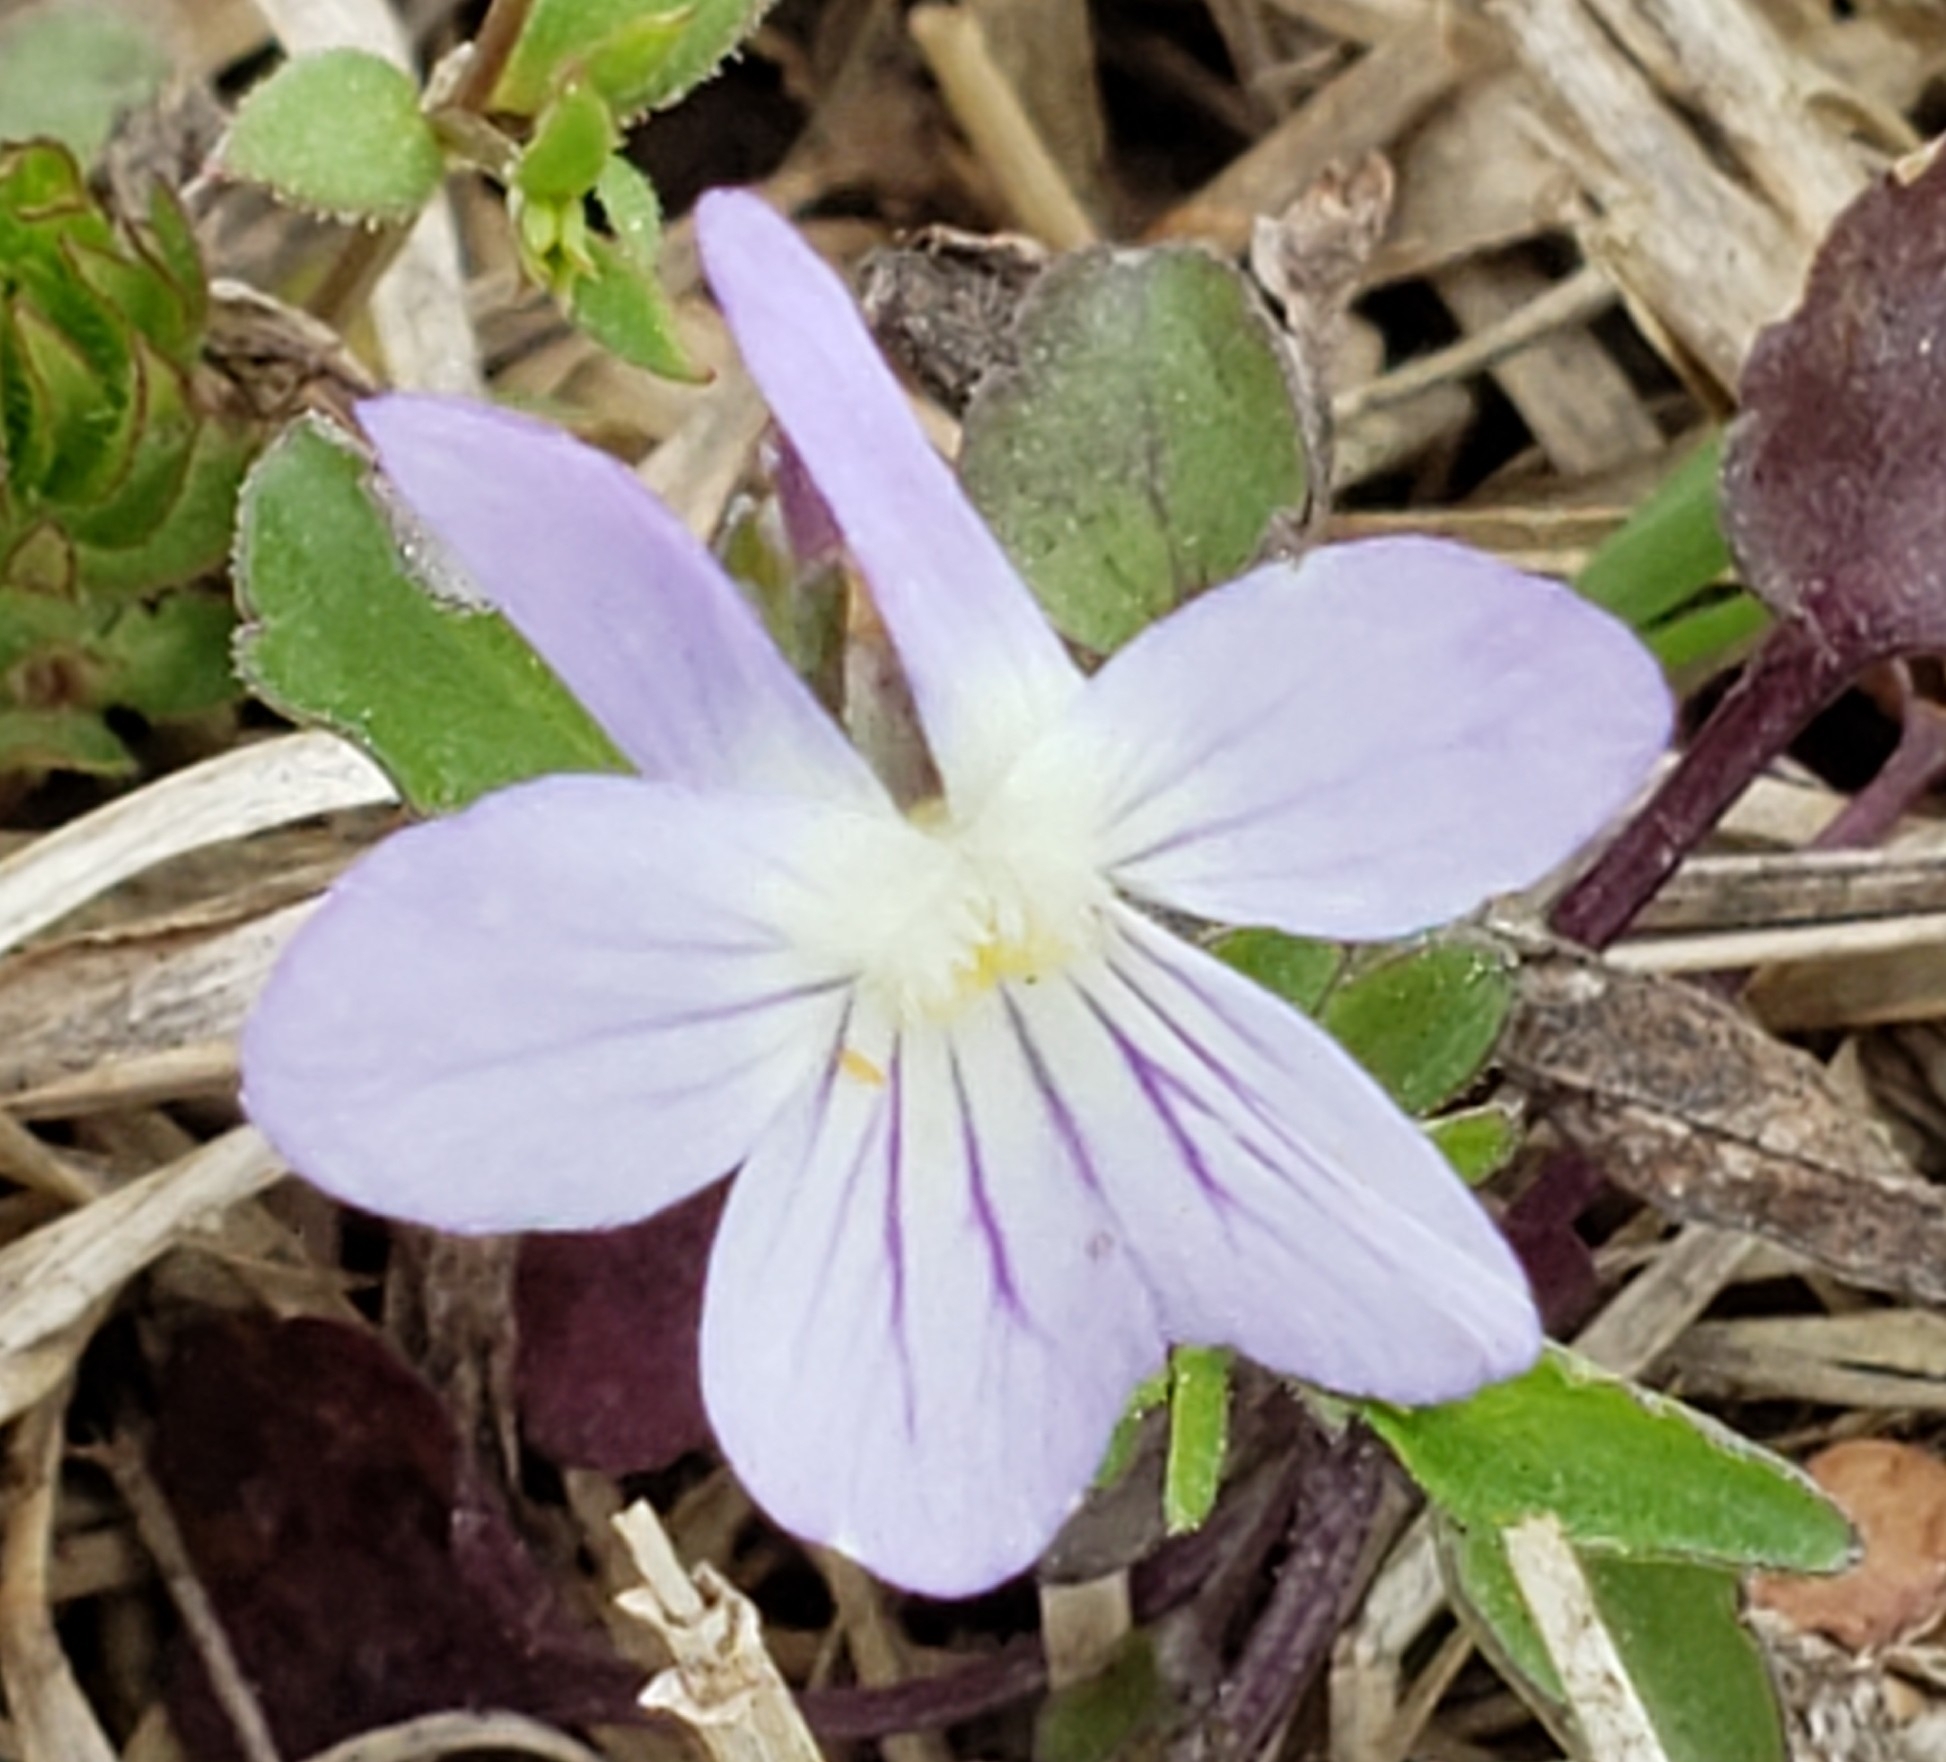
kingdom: Plantae
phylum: Tracheophyta
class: Magnoliopsida
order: Malpighiales
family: Violaceae
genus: Viola
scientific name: Viola rafinesquei
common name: American field pansy
